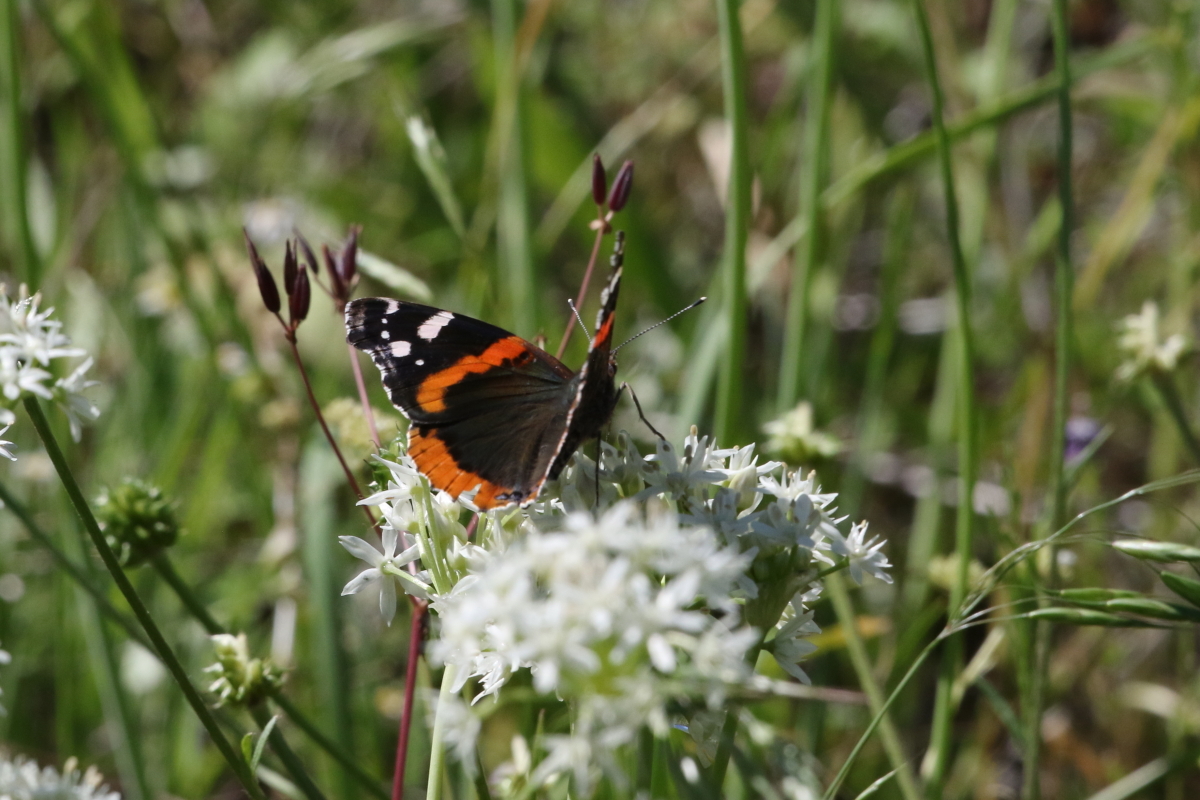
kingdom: Animalia
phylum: Arthropoda
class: Insecta
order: Lepidoptera
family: Nymphalidae
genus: Vanessa
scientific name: Vanessa atalanta
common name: Red admiral
